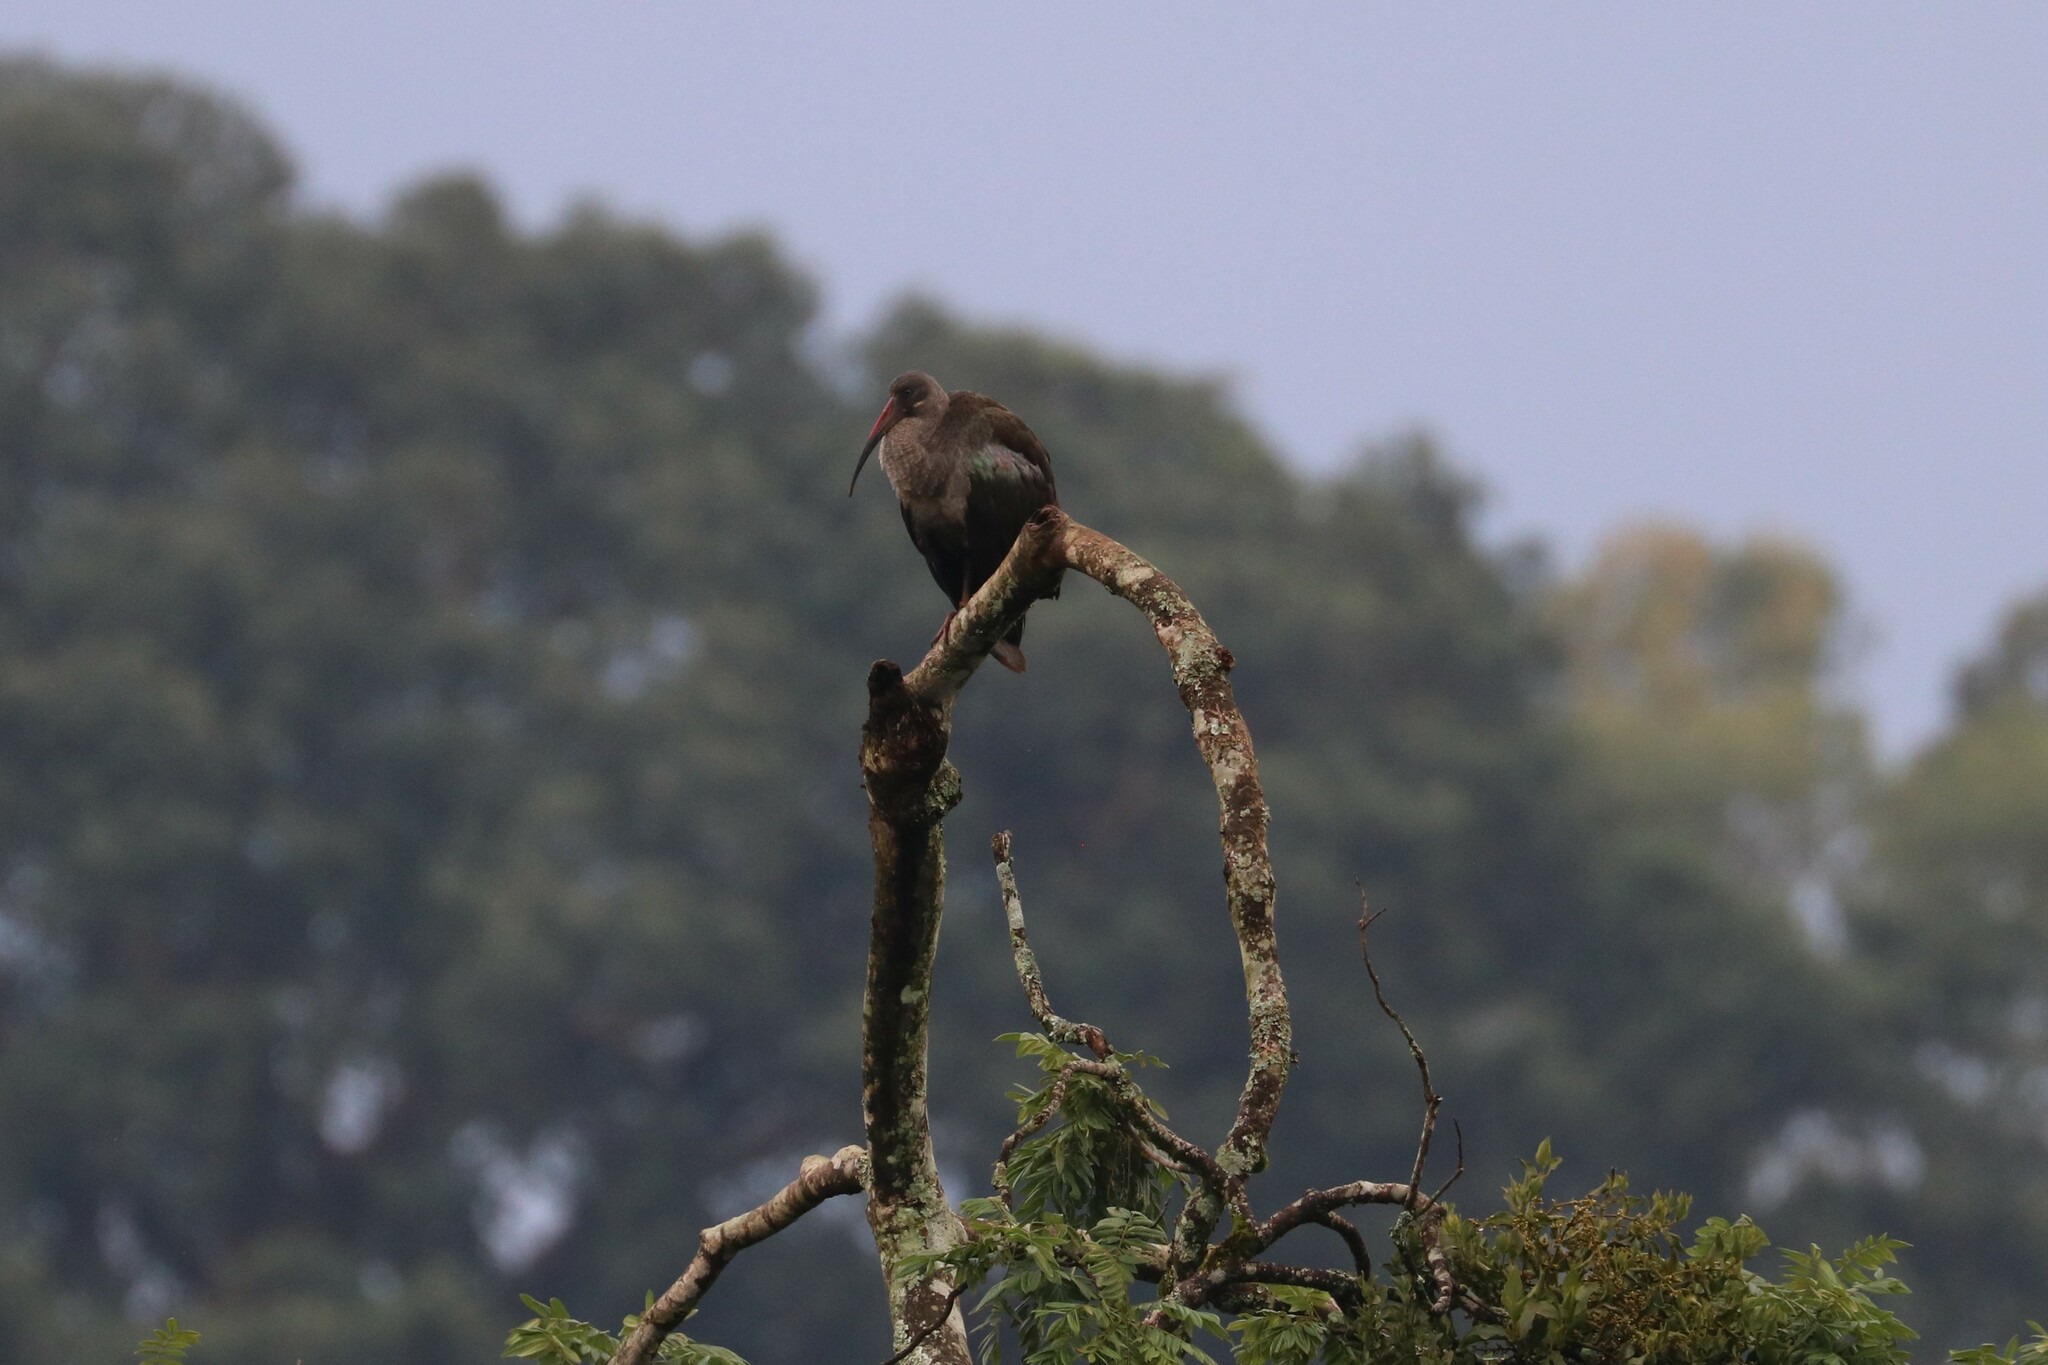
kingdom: Animalia
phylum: Chordata
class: Aves
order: Pelecaniformes
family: Threskiornithidae
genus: Bostrychia
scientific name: Bostrychia hagedash
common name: Hadada ibis
